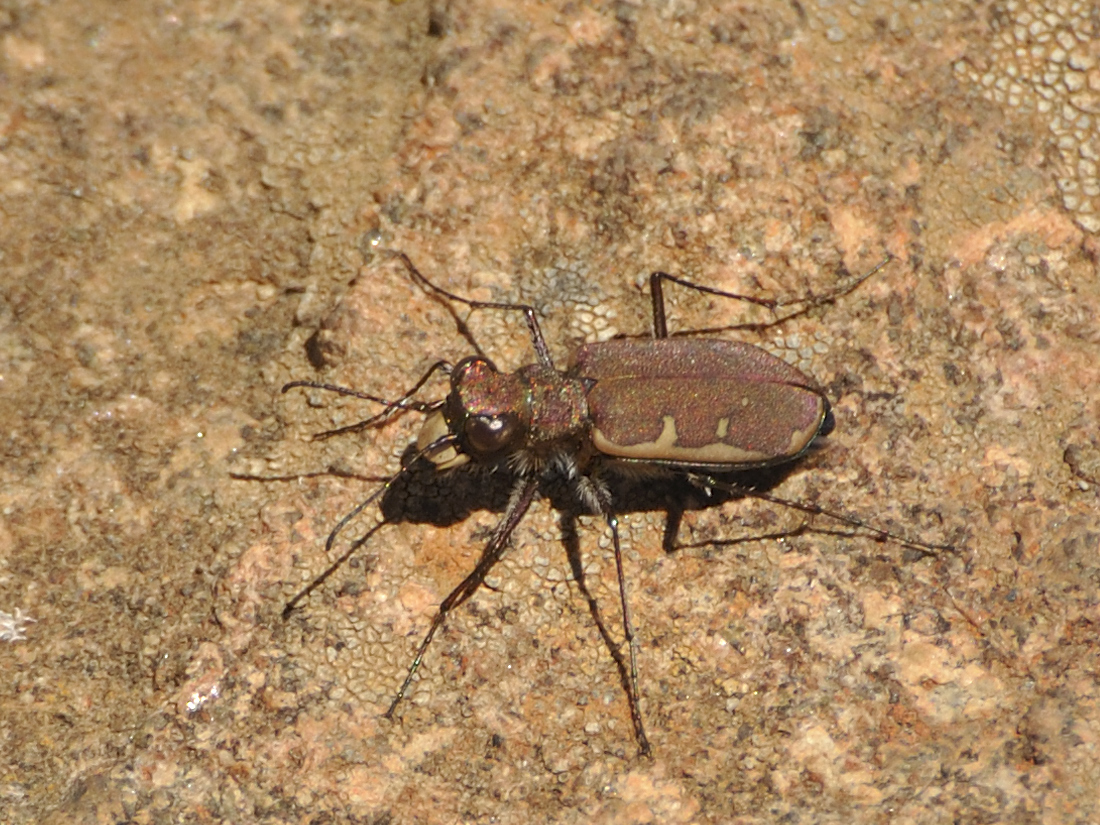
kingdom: Animalia
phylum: Arthropoda
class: Insecta
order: Coleoptera
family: Carabidae
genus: Cicindela
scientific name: Cicindela marginella
